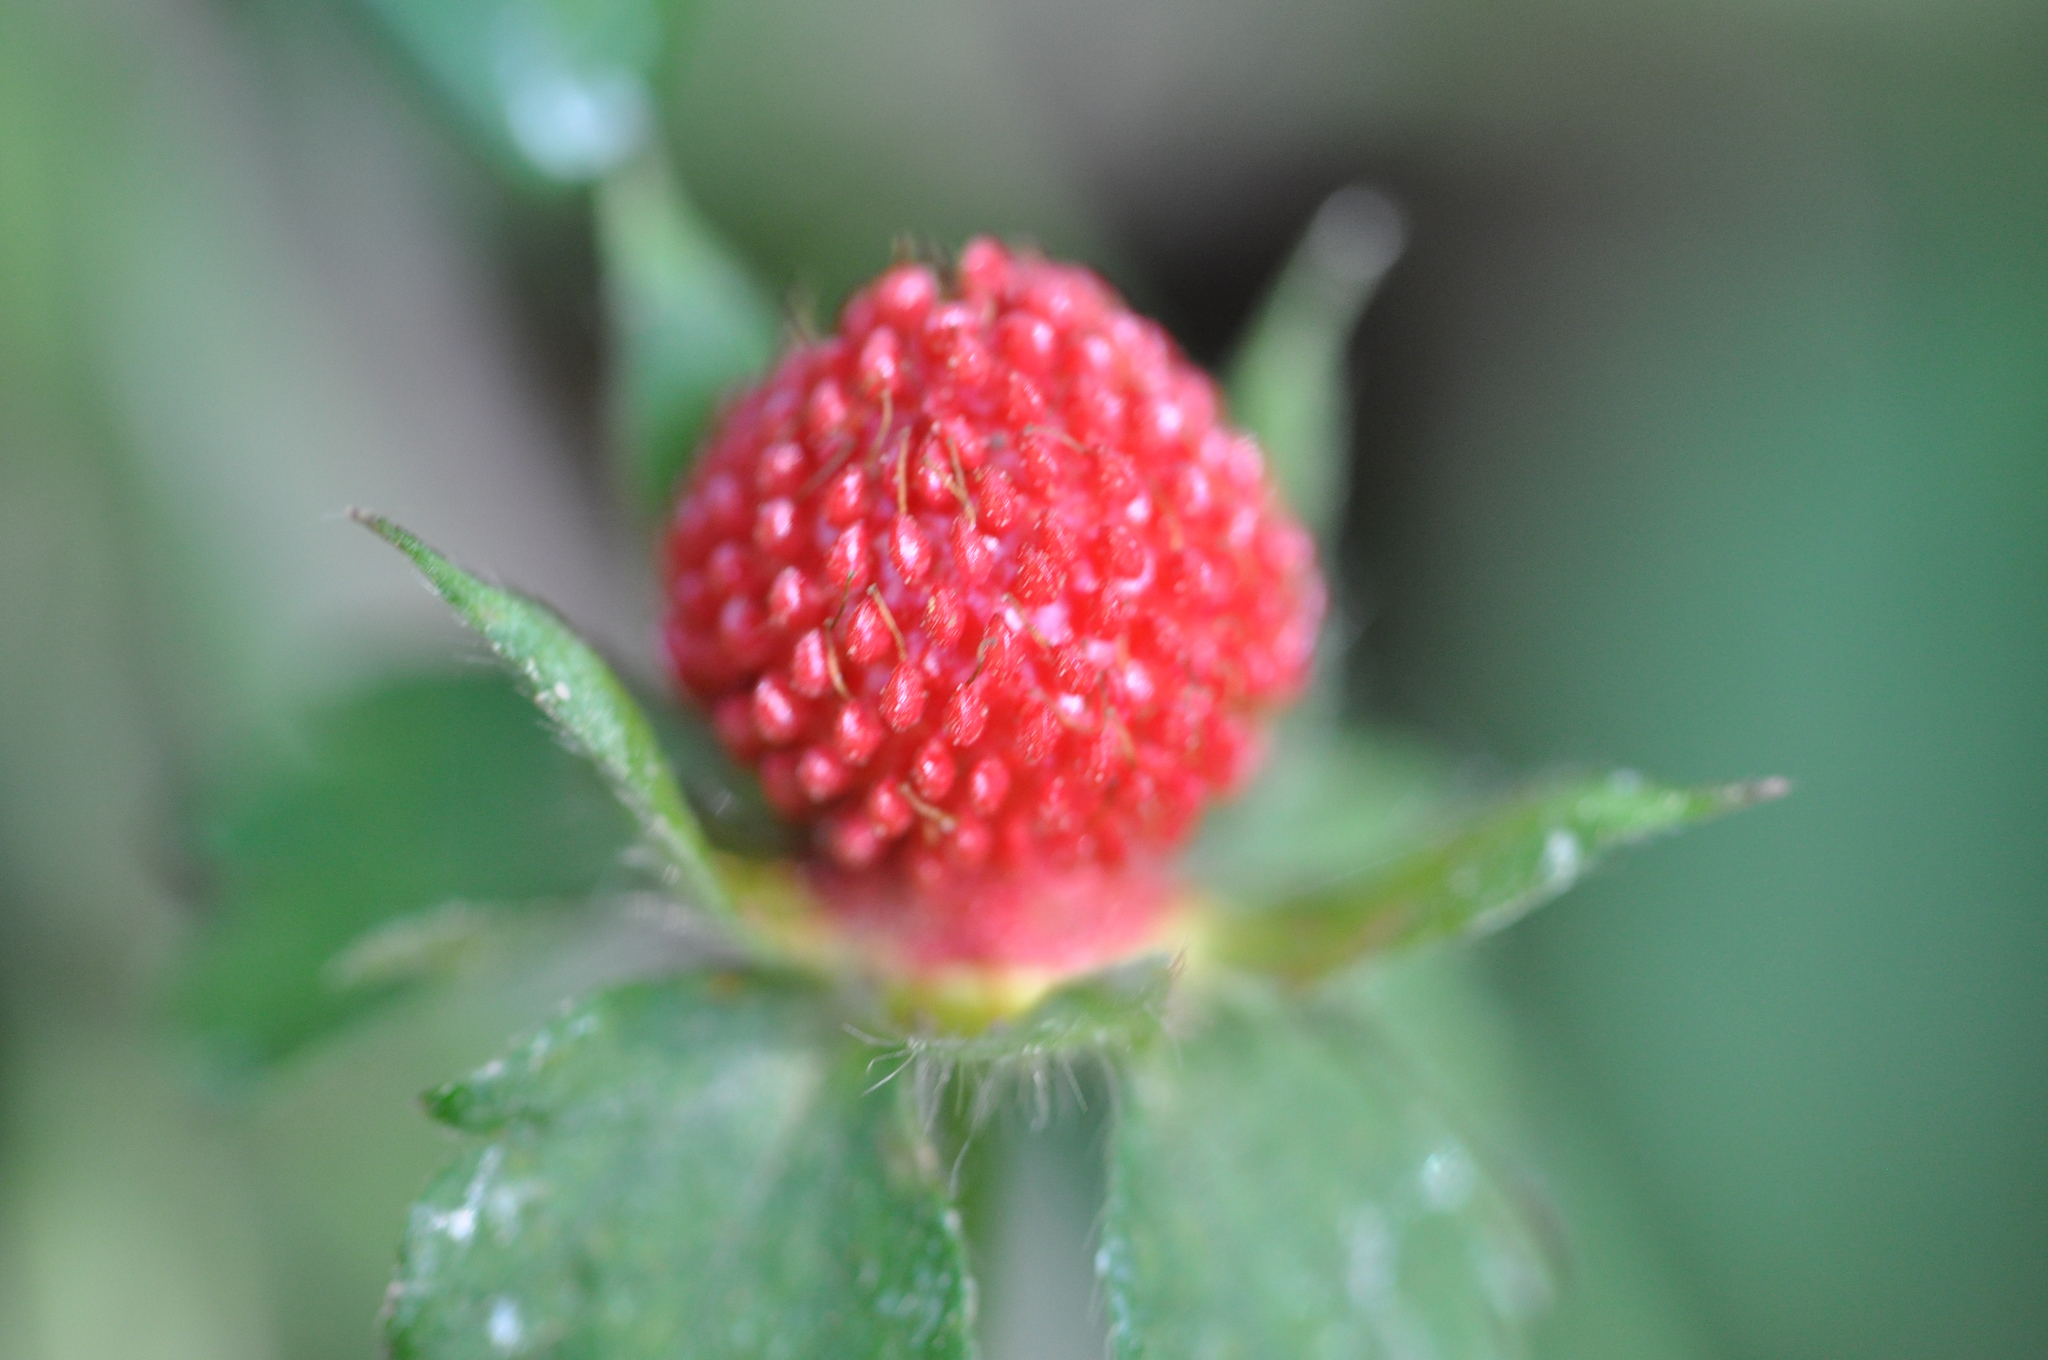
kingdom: Plantae
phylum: Tracheophyta
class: Magnoliopsida
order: Rosales
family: Rosaceae
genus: Potentilla
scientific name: Potentilla indica
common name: Yellow-flowered strawberry
